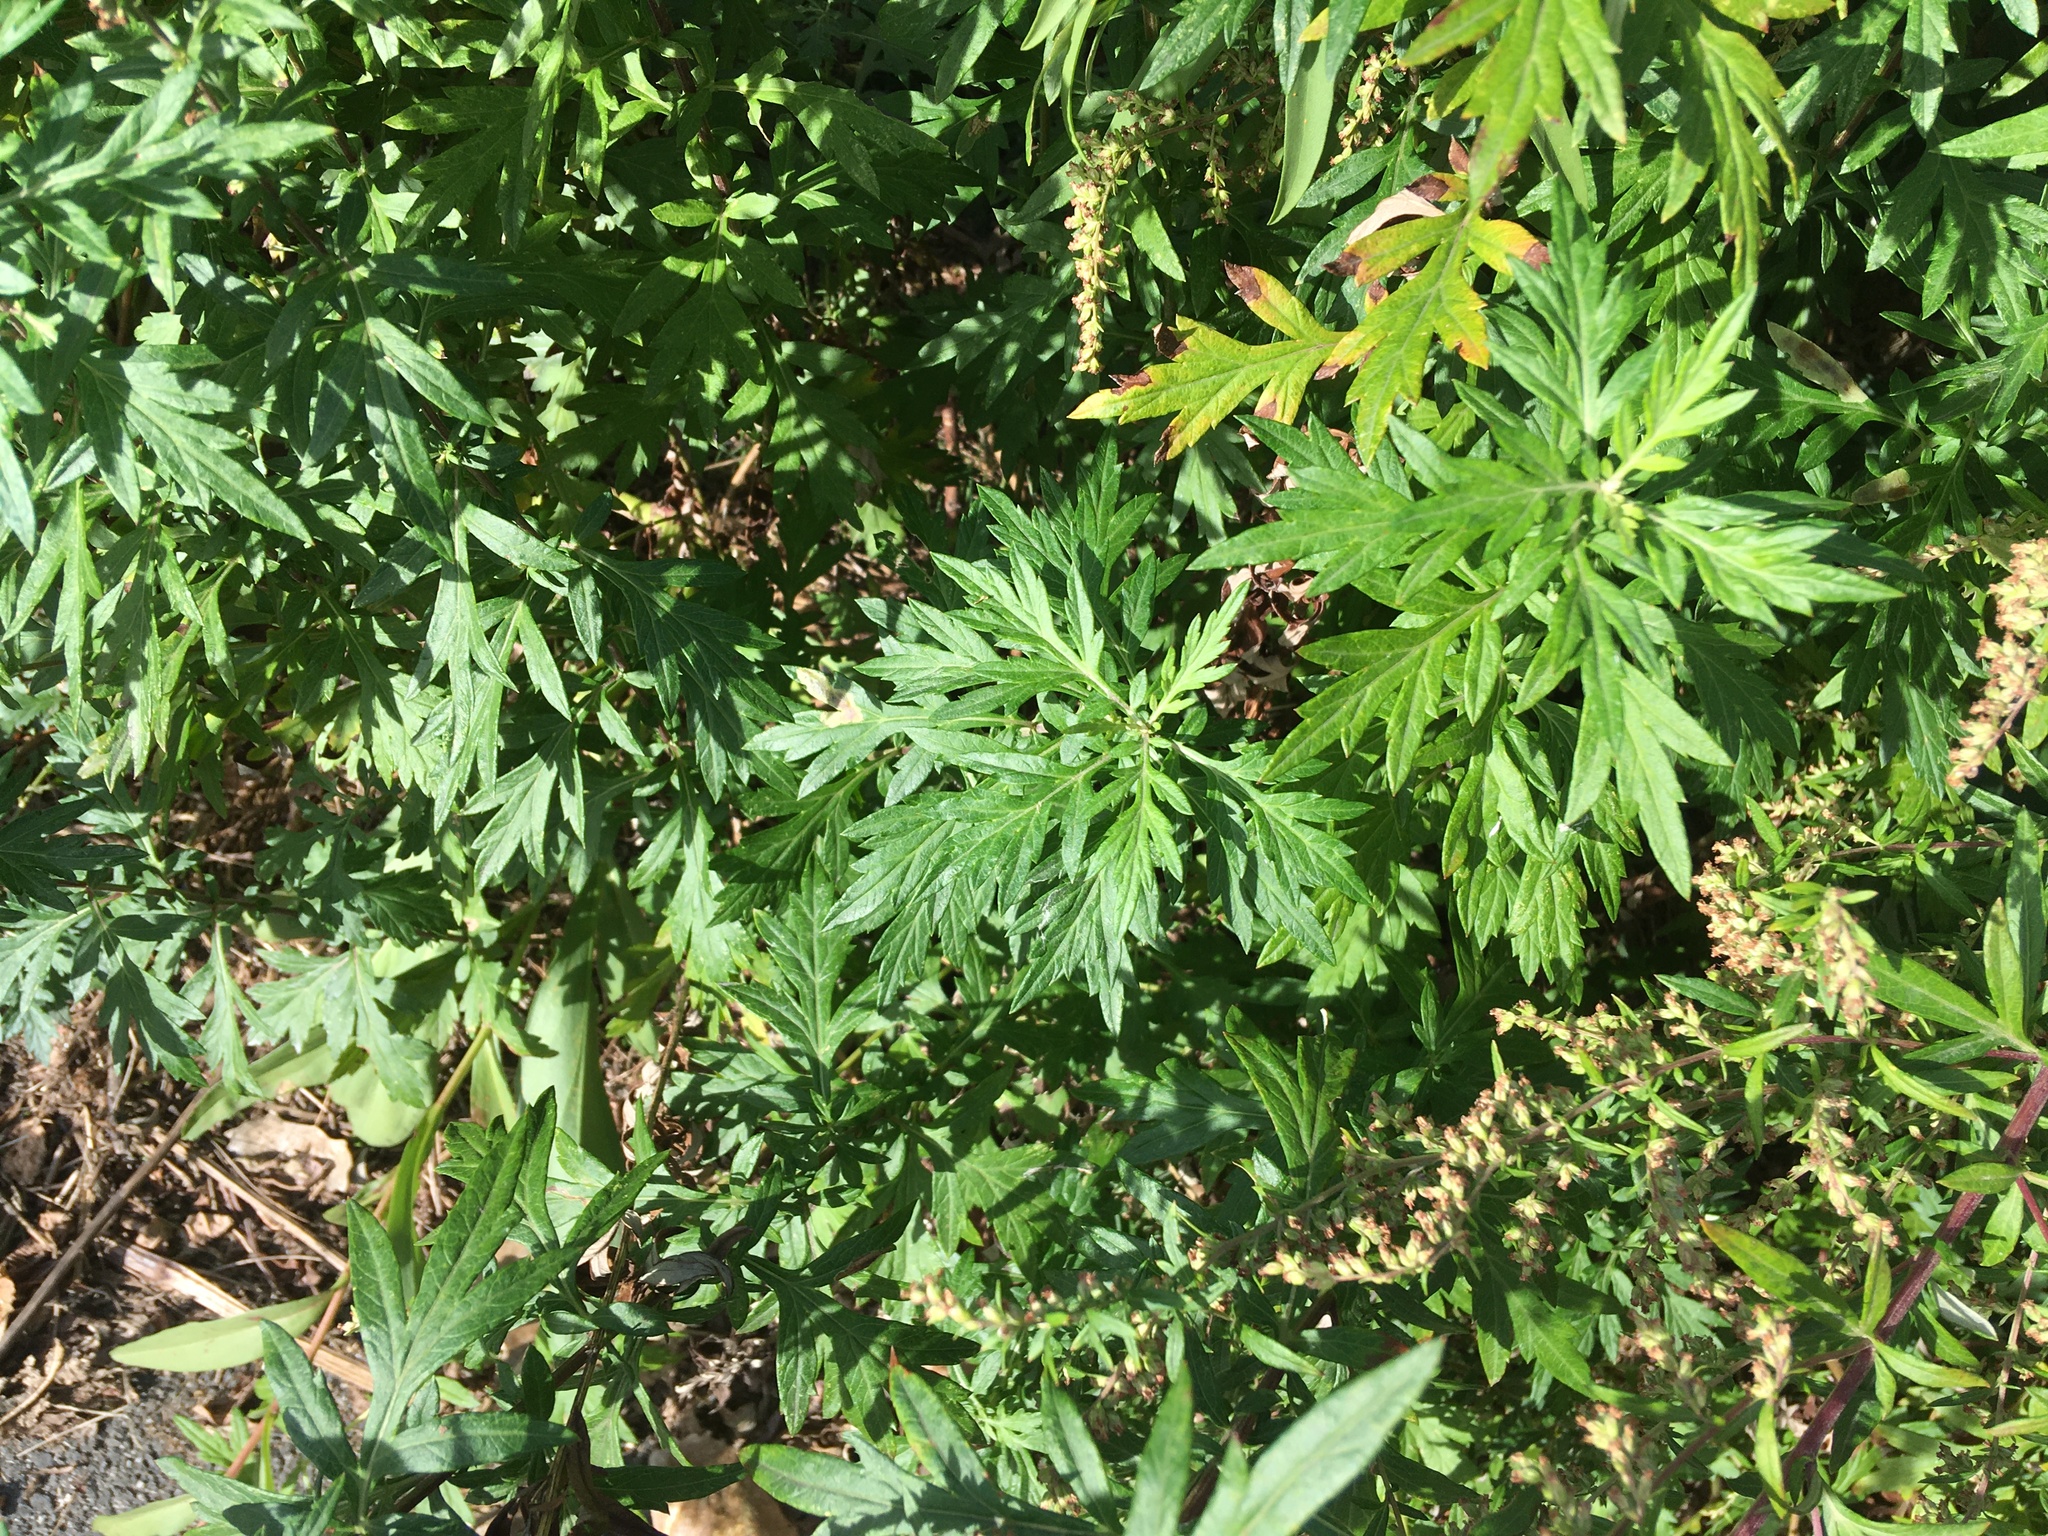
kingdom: Plantae
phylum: Tracheophyta
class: Magnoliopsida
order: Asterales
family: Asteraceae
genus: Artemisia
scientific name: Artemisia vulgaris
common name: Mugwort
